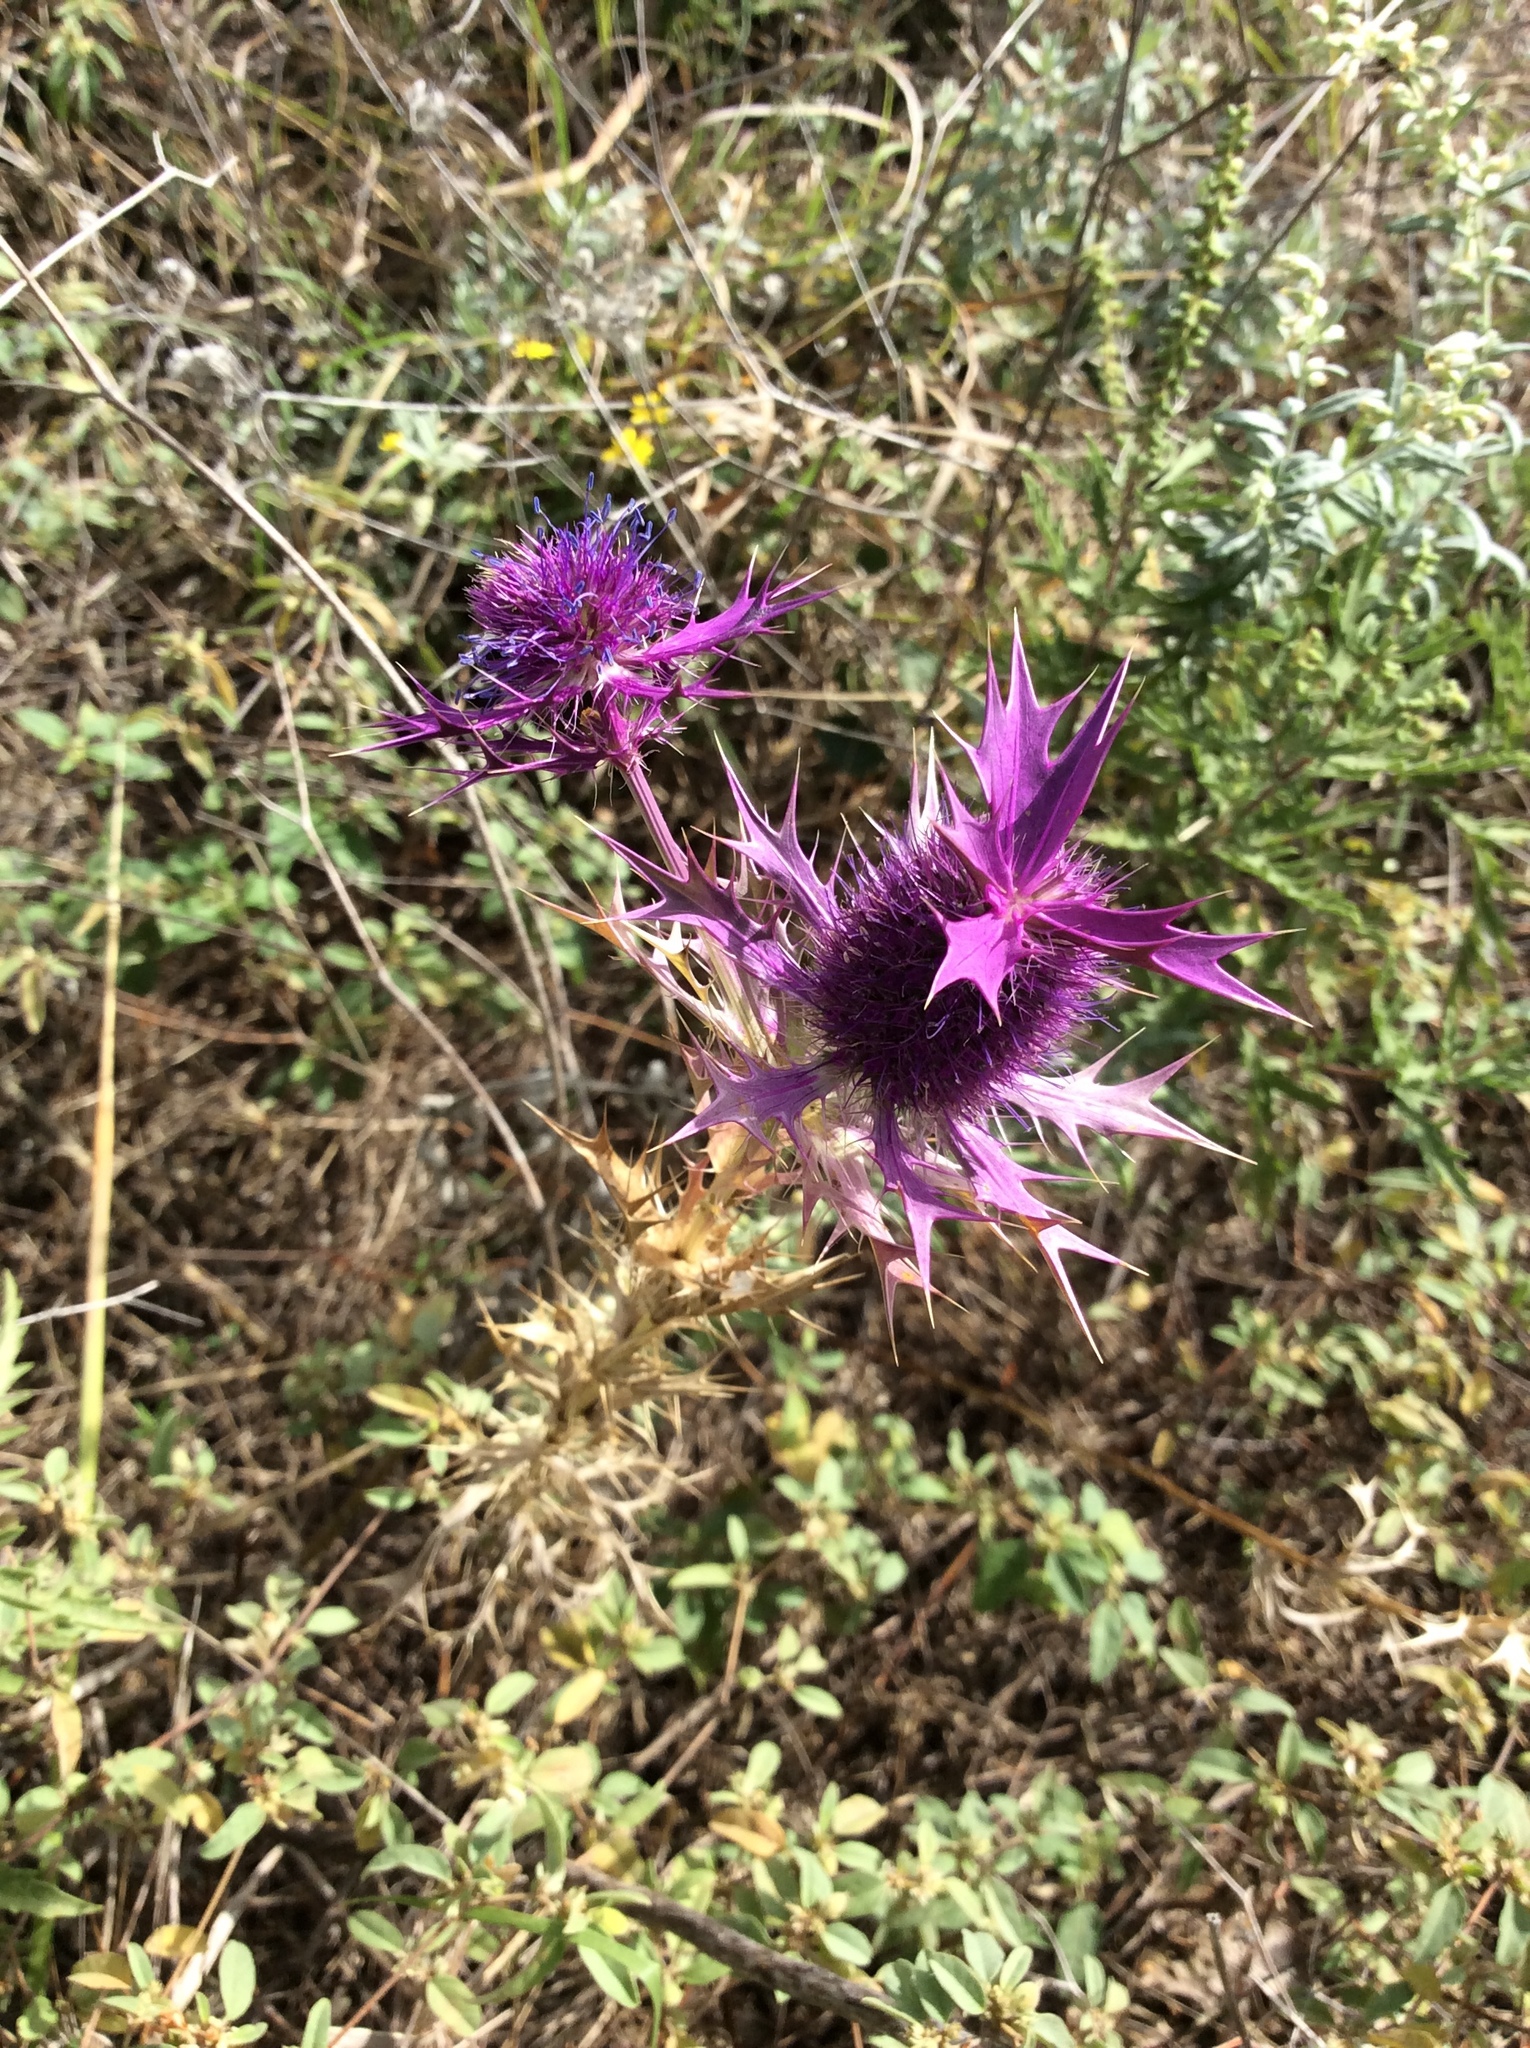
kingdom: Plantae
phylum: Tracheophyta
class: Magnoliopsida
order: Apiales
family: Apiaceae
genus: Eryngium
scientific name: Eryngium leavenworthii
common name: Leavenworth's eryngo
